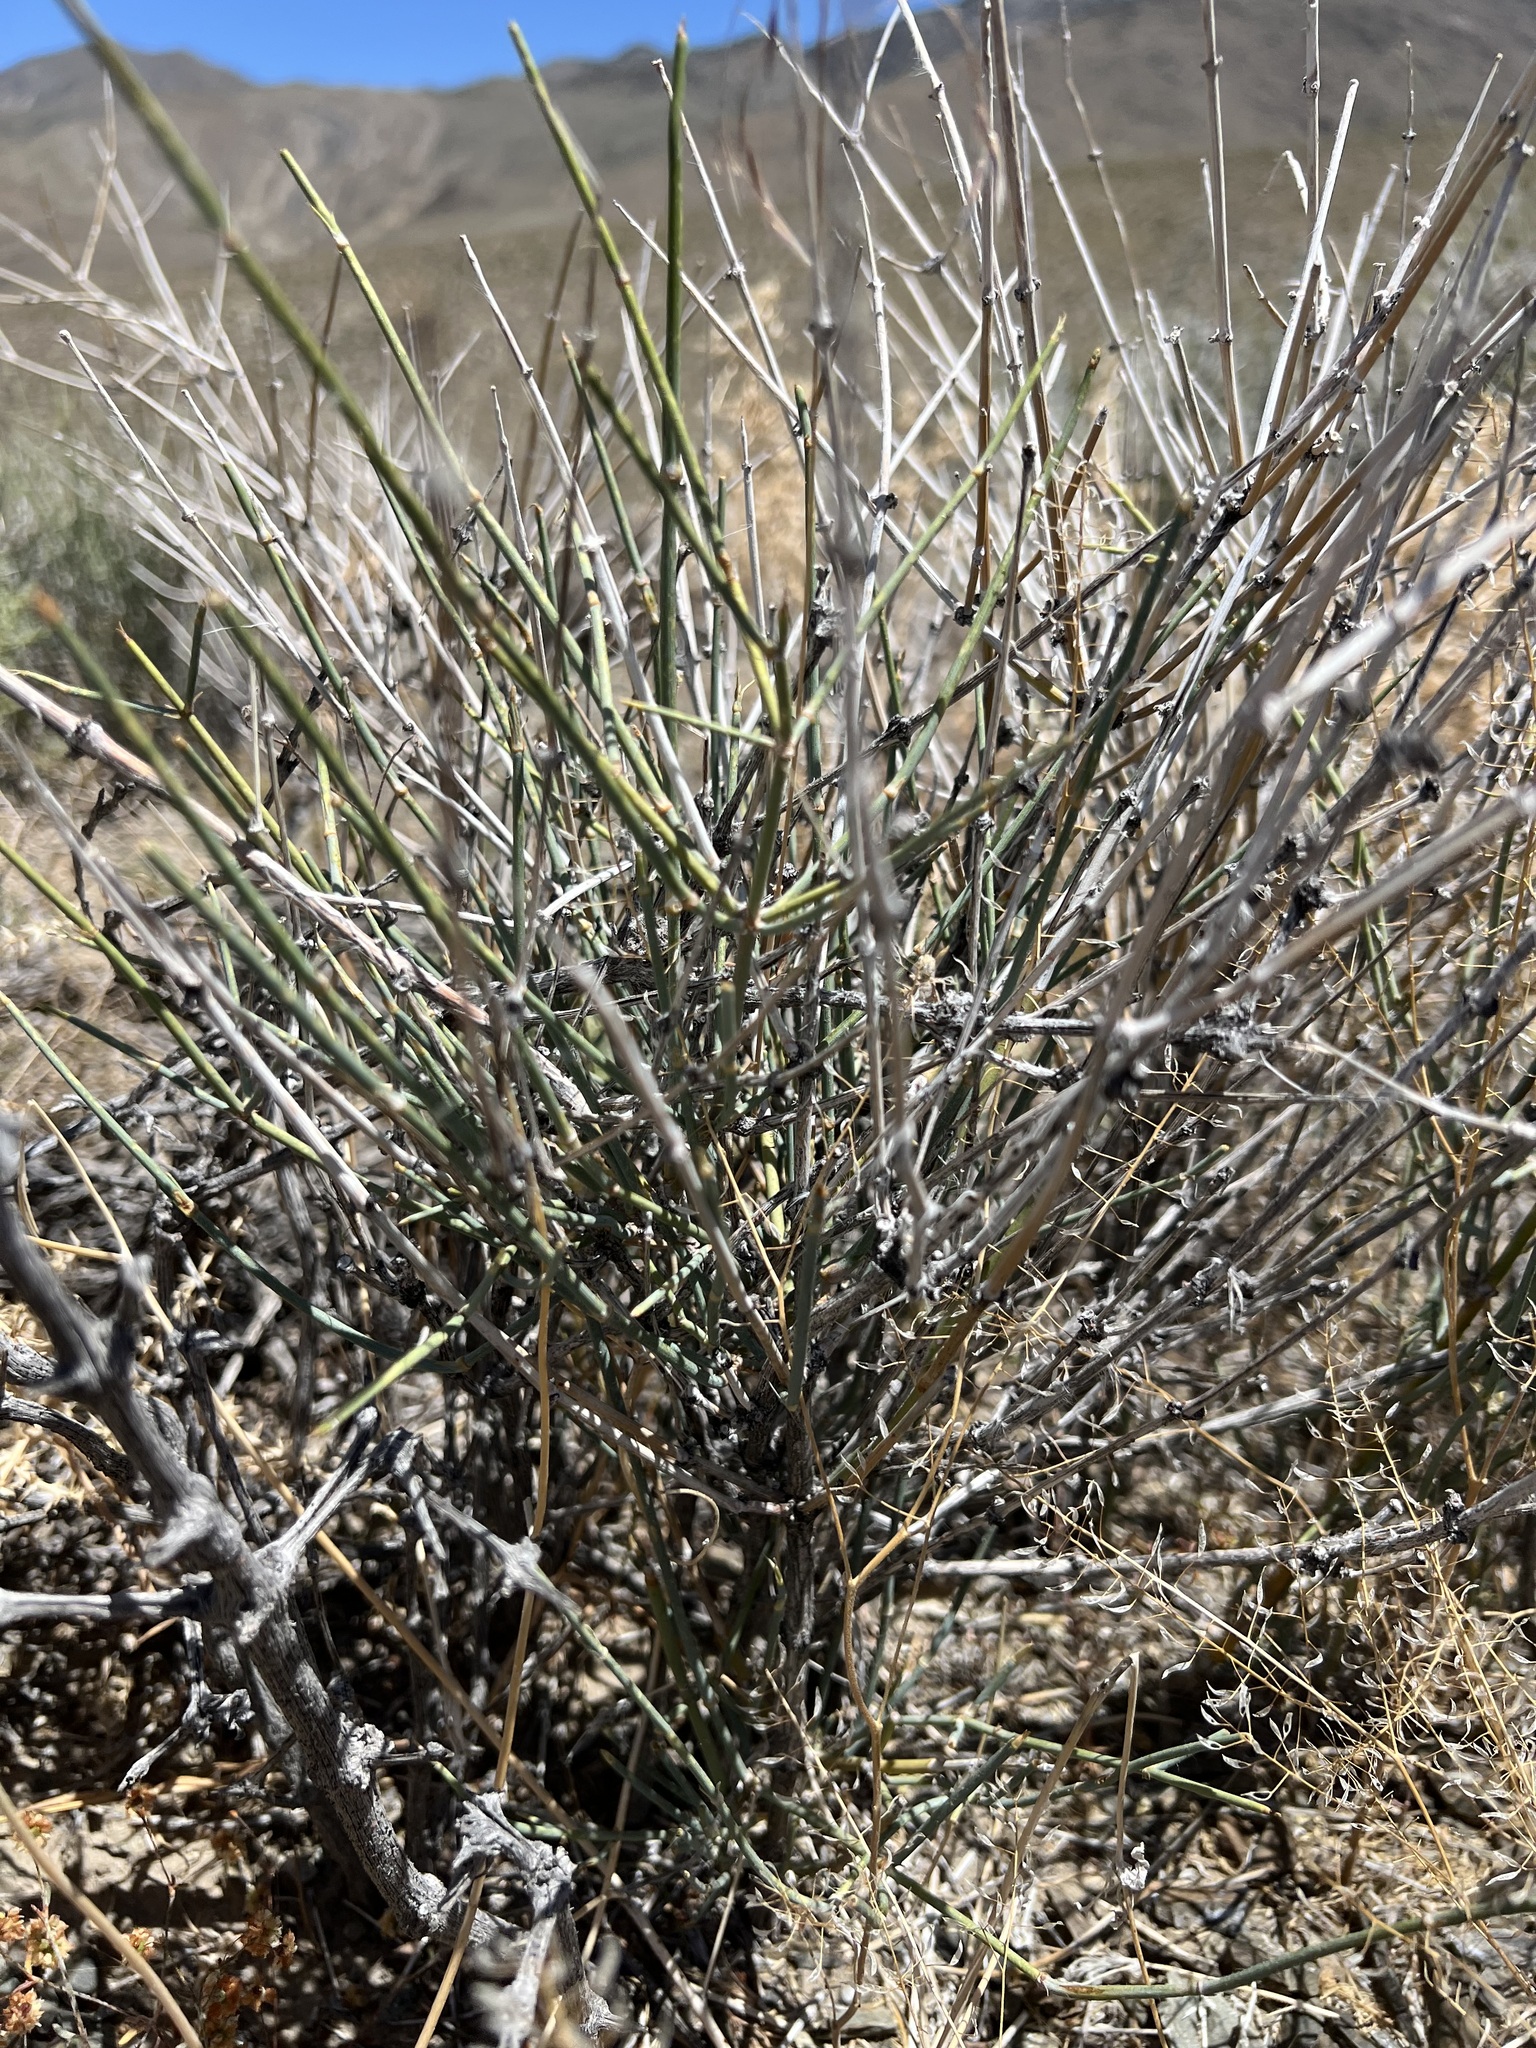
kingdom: Plantae
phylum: Tracheophyta
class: Gnetopsida
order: Ephedrales
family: Ephedraceae
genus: Ephedra
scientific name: Ephedra nevadensis
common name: Gray ephedra
